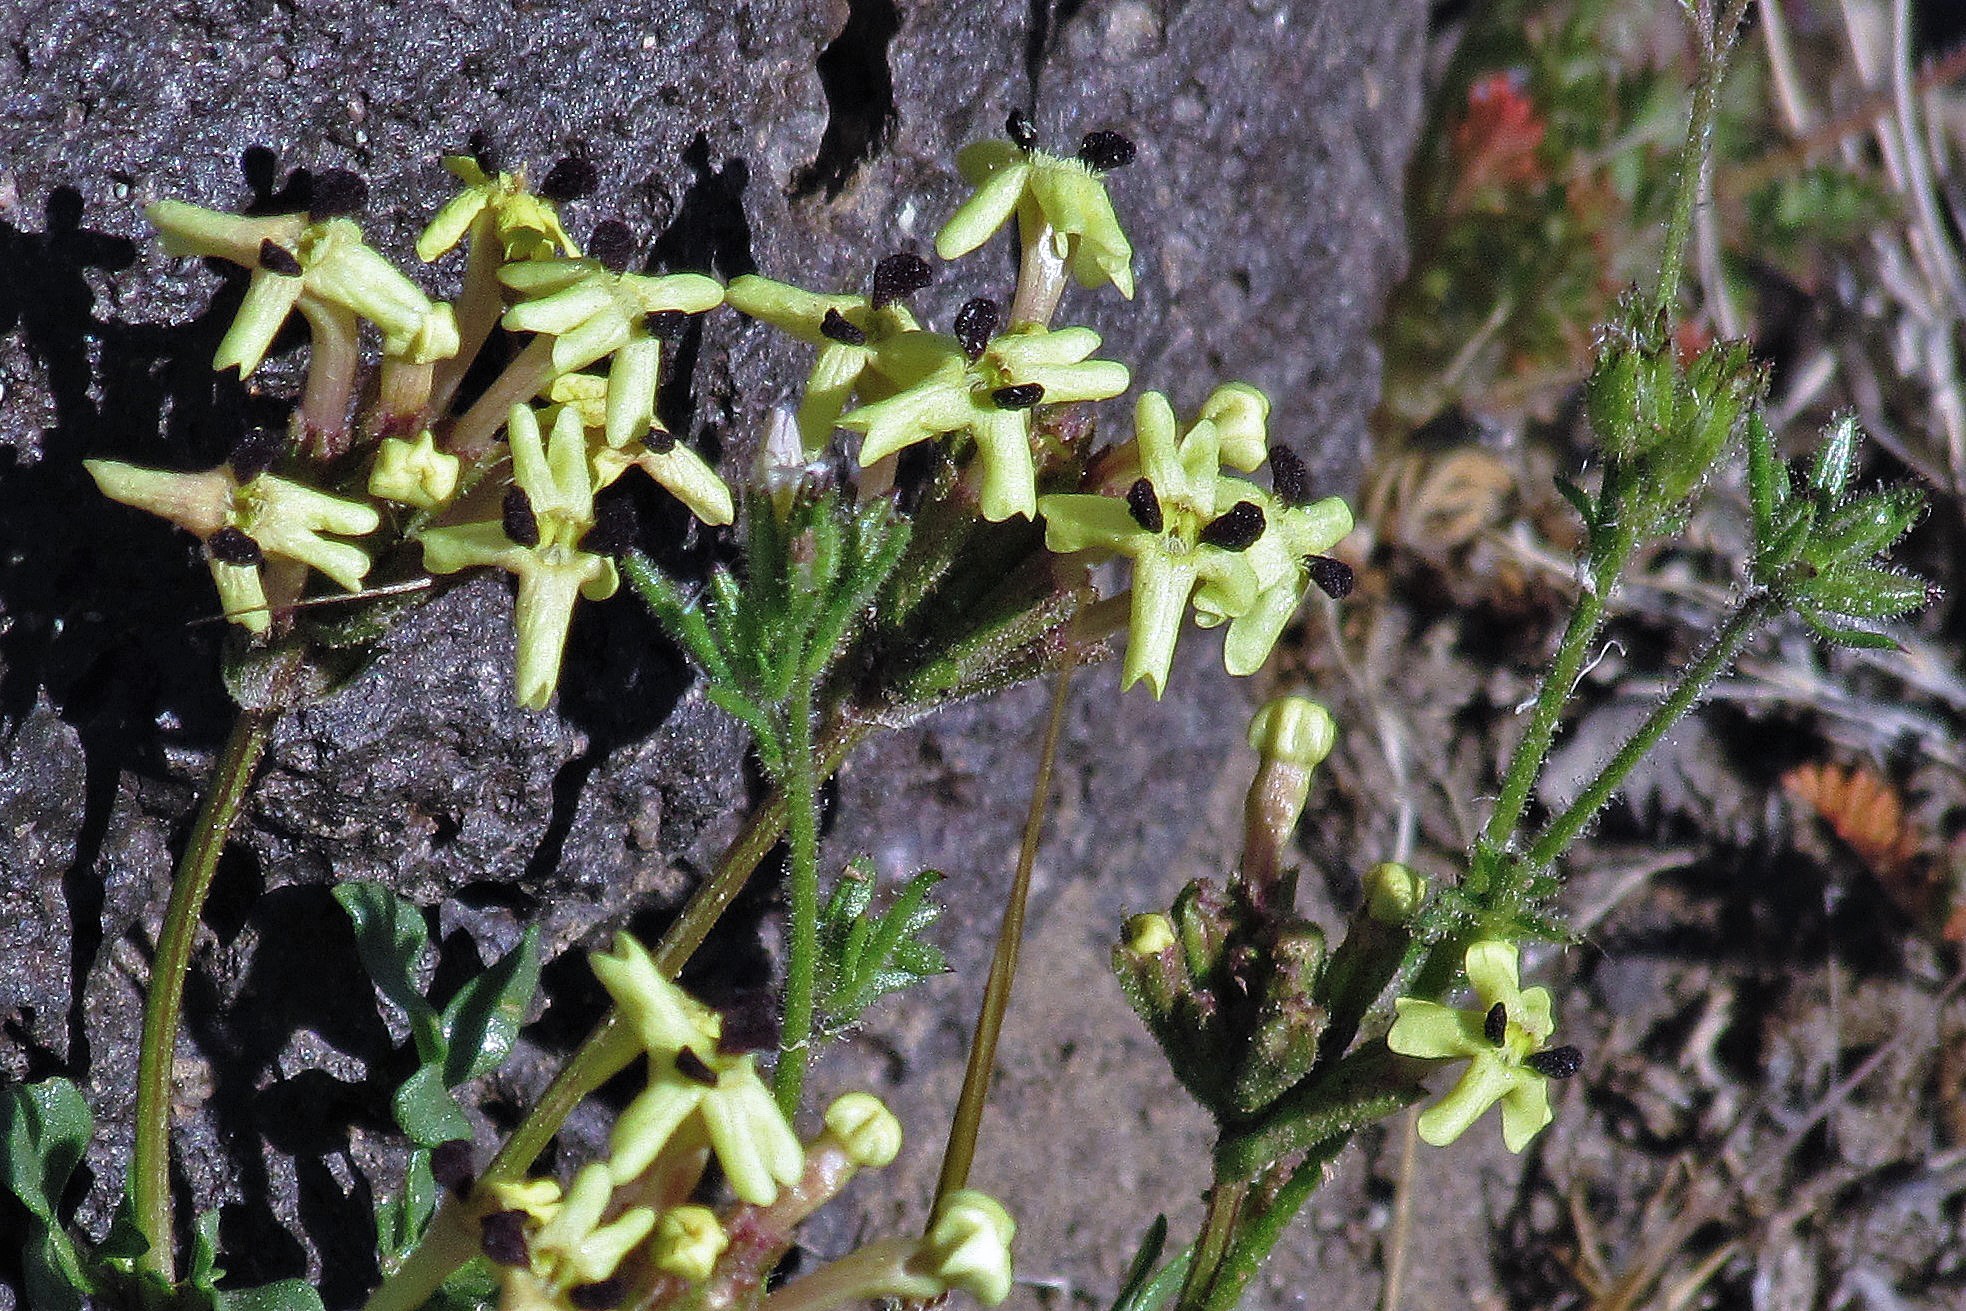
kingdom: Plantae
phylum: Tracheophyta
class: Magnoliopsida
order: Lamiales
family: Verbenaceae
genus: Verbena
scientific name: Verbena araucana
